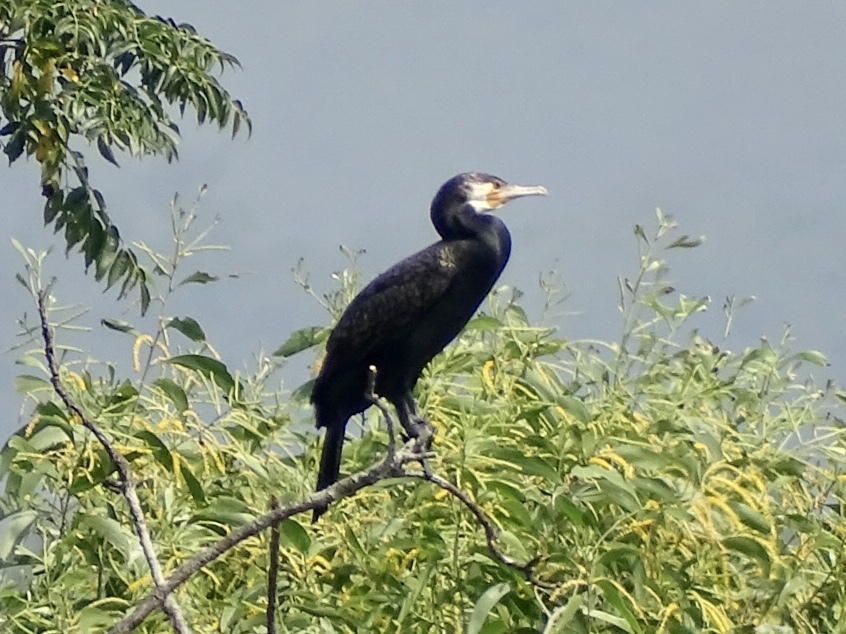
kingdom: Animalia
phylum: Chordata
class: Aves
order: Suliformes
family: Phalacrocoracidae
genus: Phalacrocorax
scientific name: Phalacrocorax carbo
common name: Great cormorant
